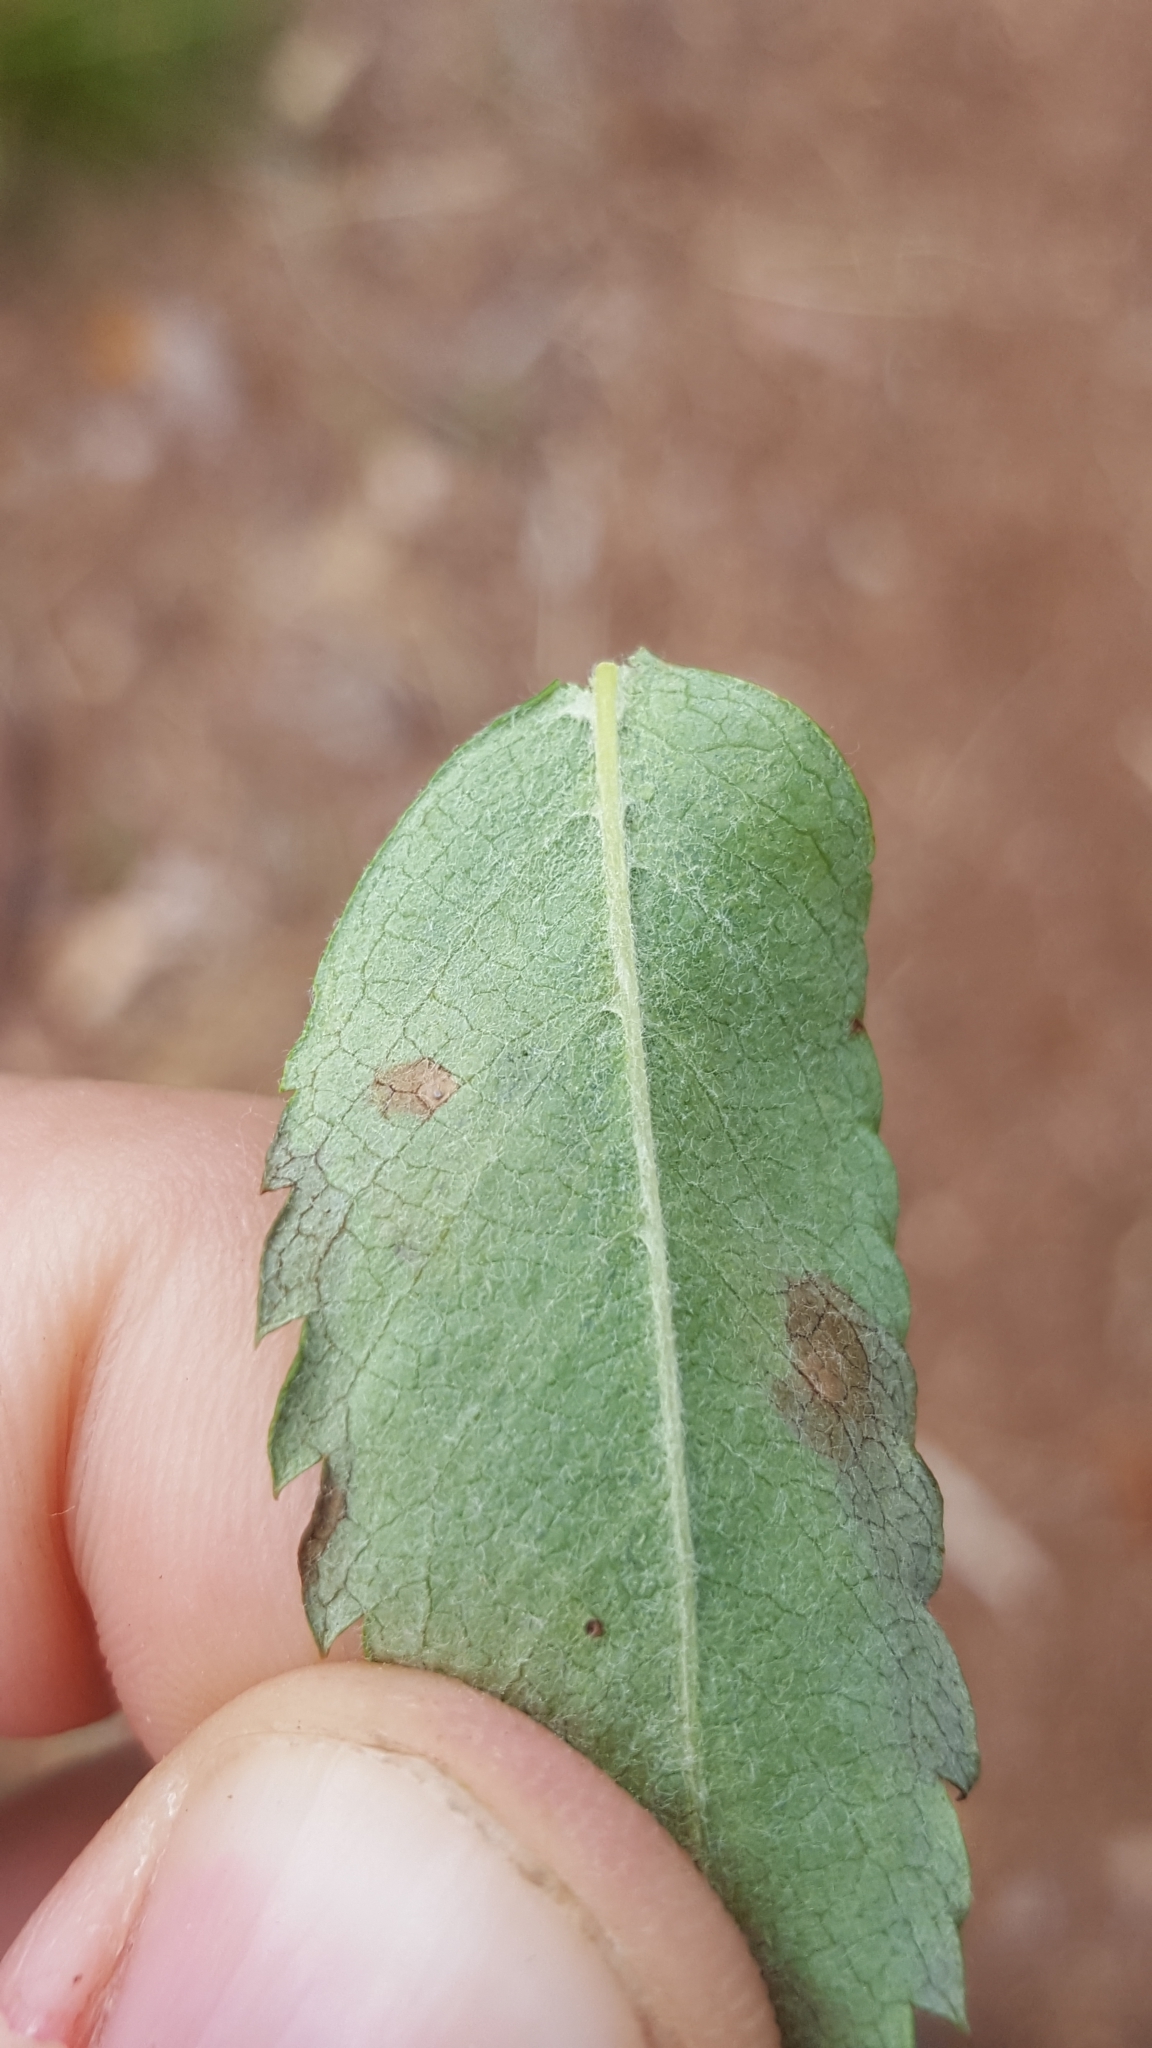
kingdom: Animalia
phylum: Arthropoda
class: Insecta
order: Lepidoptera
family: Lyonetiidae
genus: Leucoptera
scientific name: Leucoptera malifoliella
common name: Pear leaf blister moth
